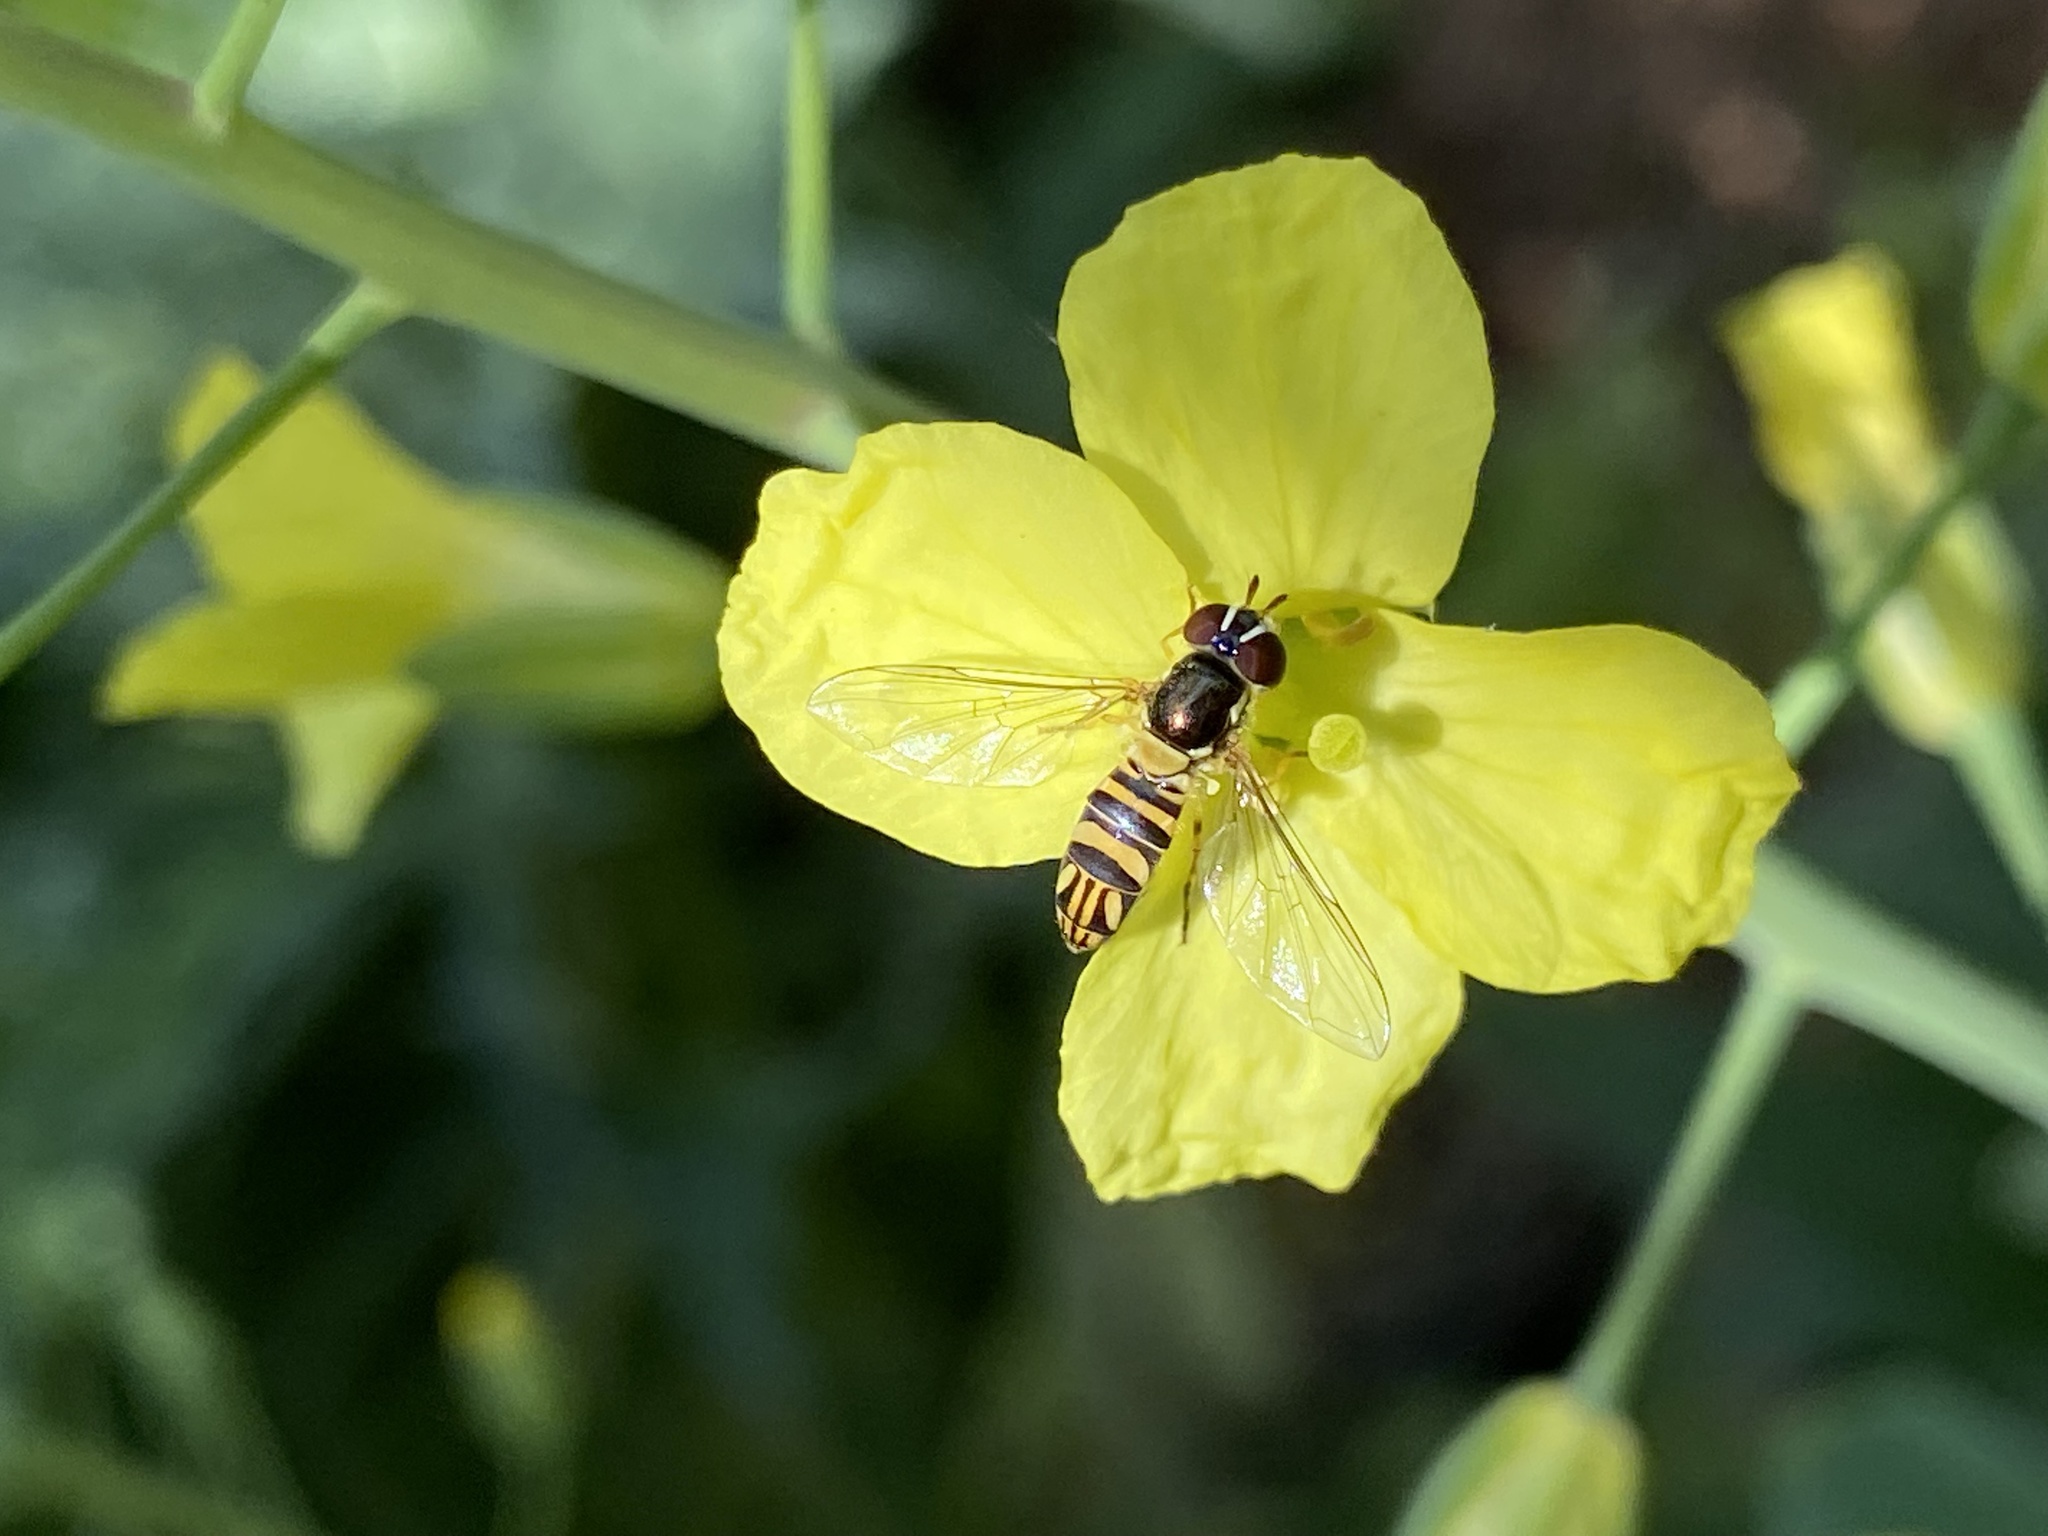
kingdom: Animalia
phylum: Arthropoda
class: Insecta
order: Diptera
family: Syrphidae
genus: Allograpta
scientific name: Allograpta obliqua
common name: Common oblique syrphid
